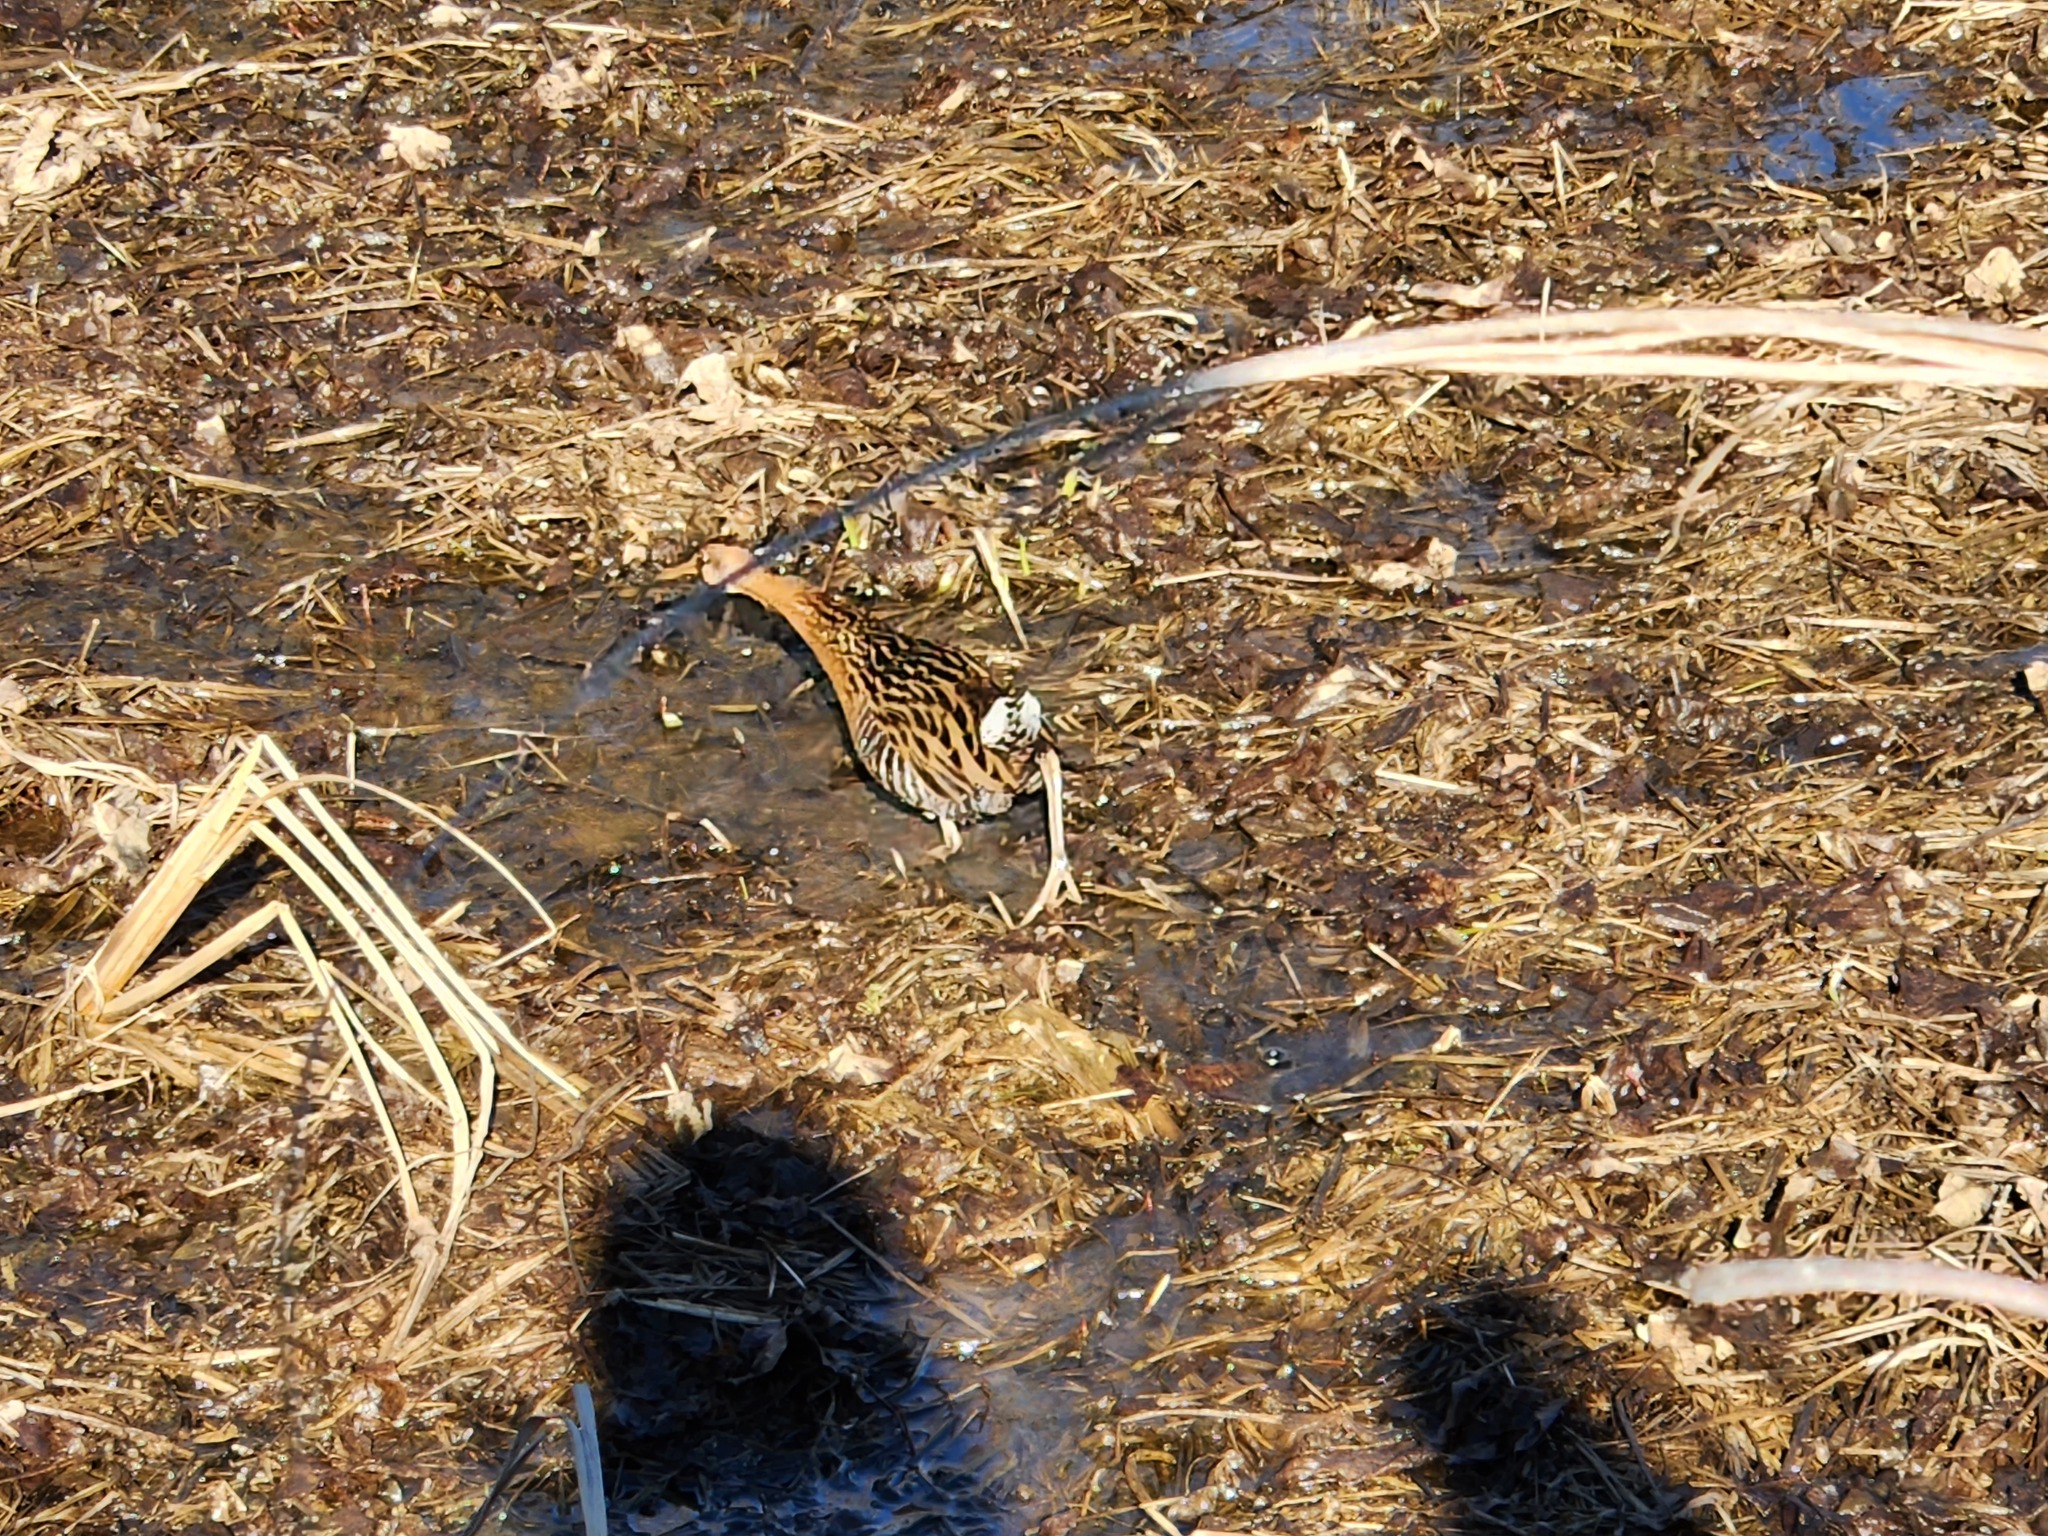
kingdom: Animalia
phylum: Chordata
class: Aves
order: Gruiformes
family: Rallidae
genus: Rallus
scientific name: Rallus elegans
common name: King rail
